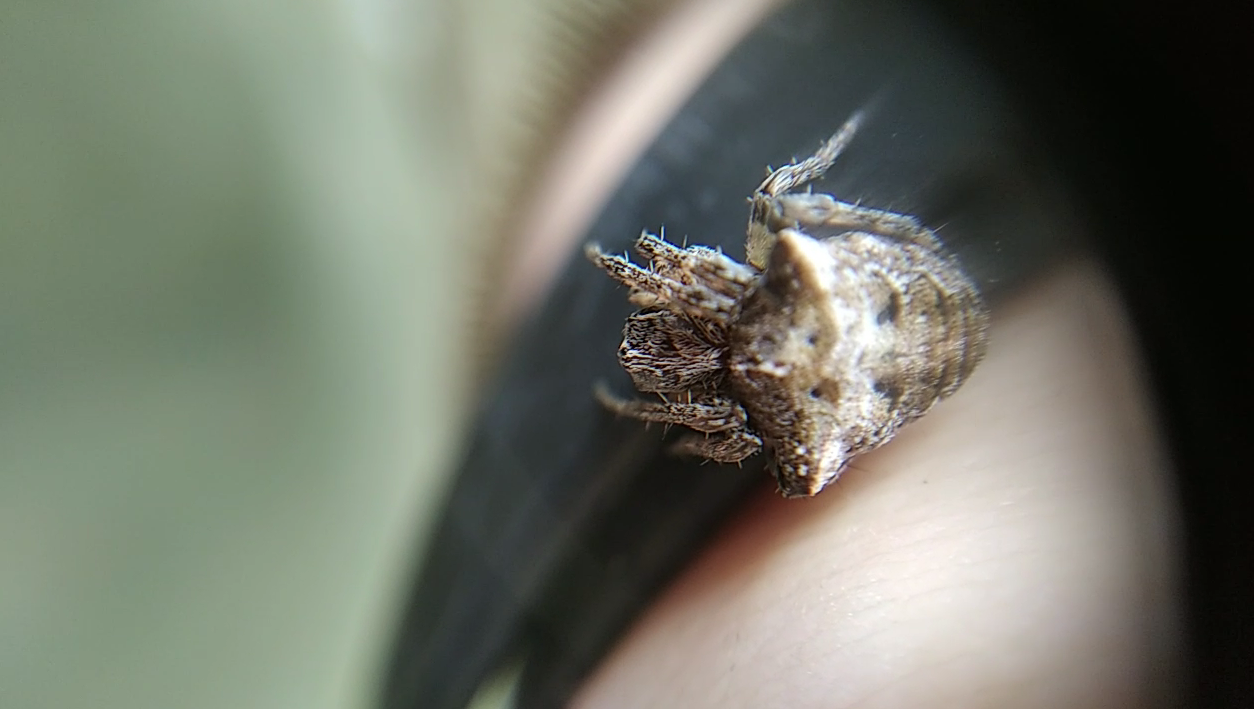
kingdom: Animalia
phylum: Arthropoda
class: Arachnida
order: Araneae
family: Araneidae
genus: Gibbaranea
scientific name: Gibbaranea bituberculata
